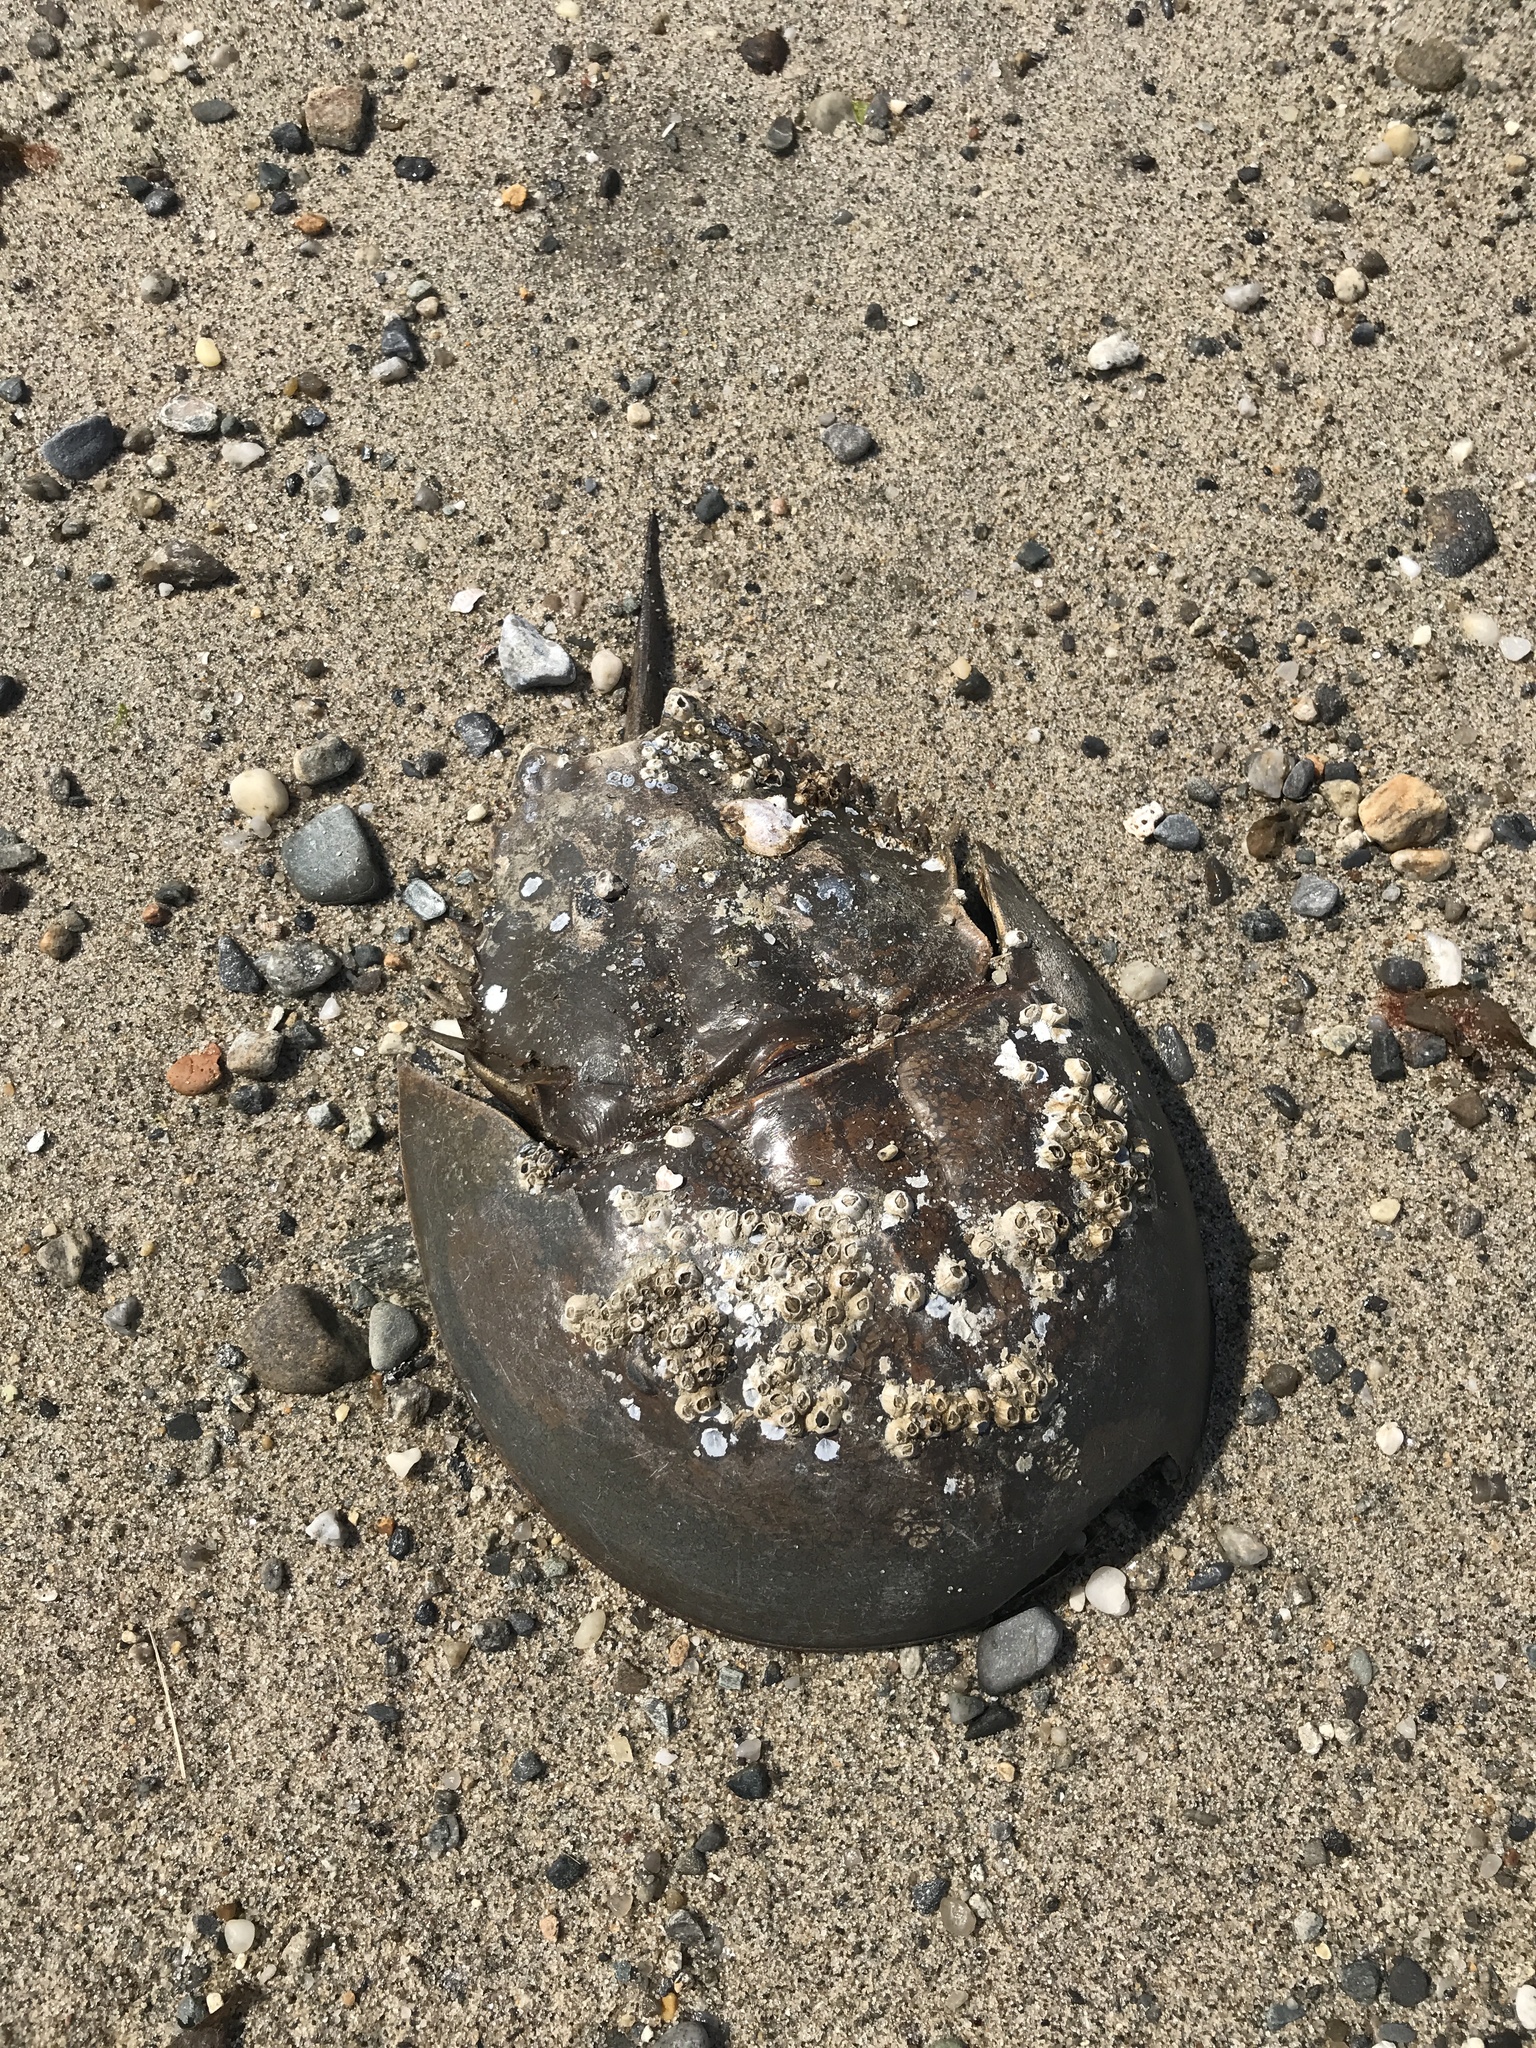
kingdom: Animalia
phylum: Arthropoda
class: Merostomata
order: Xiphosurida
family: Limulidae
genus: Limulus
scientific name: Limulus polyphemus
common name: Horseshoe crab
